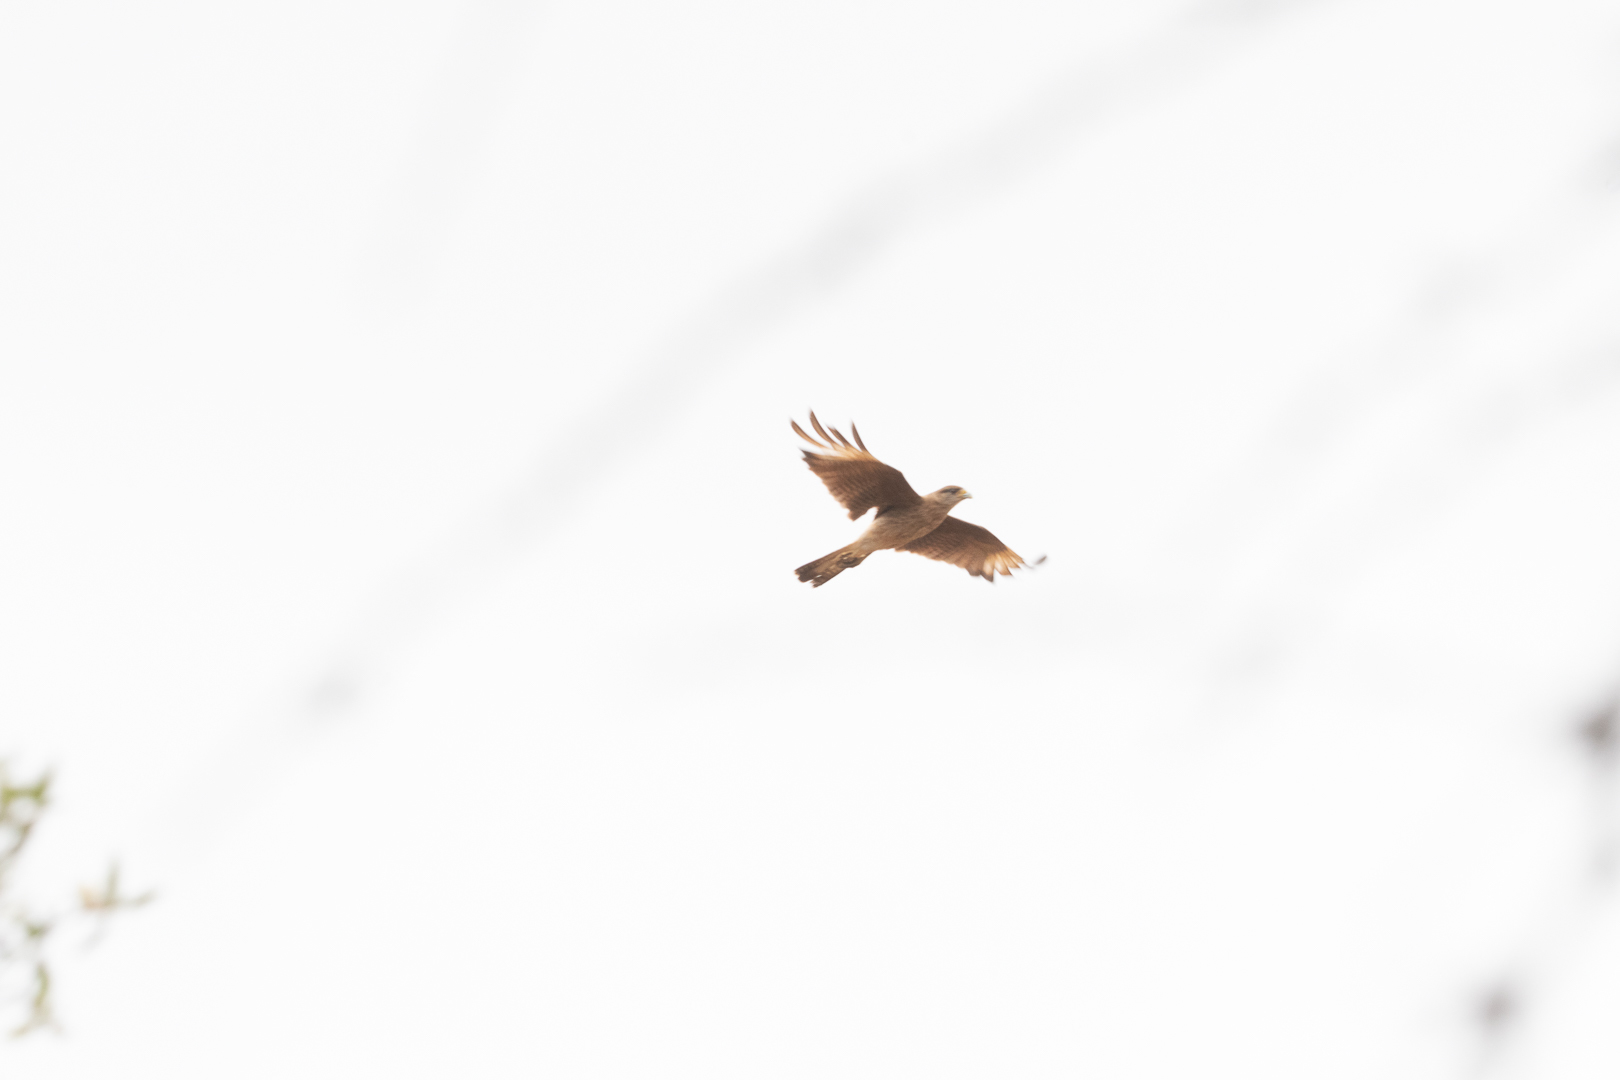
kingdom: Animalia
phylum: Chordata
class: Aves
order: Falconiformes
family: Falconidae
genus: Daptrius
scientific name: Daptrius
